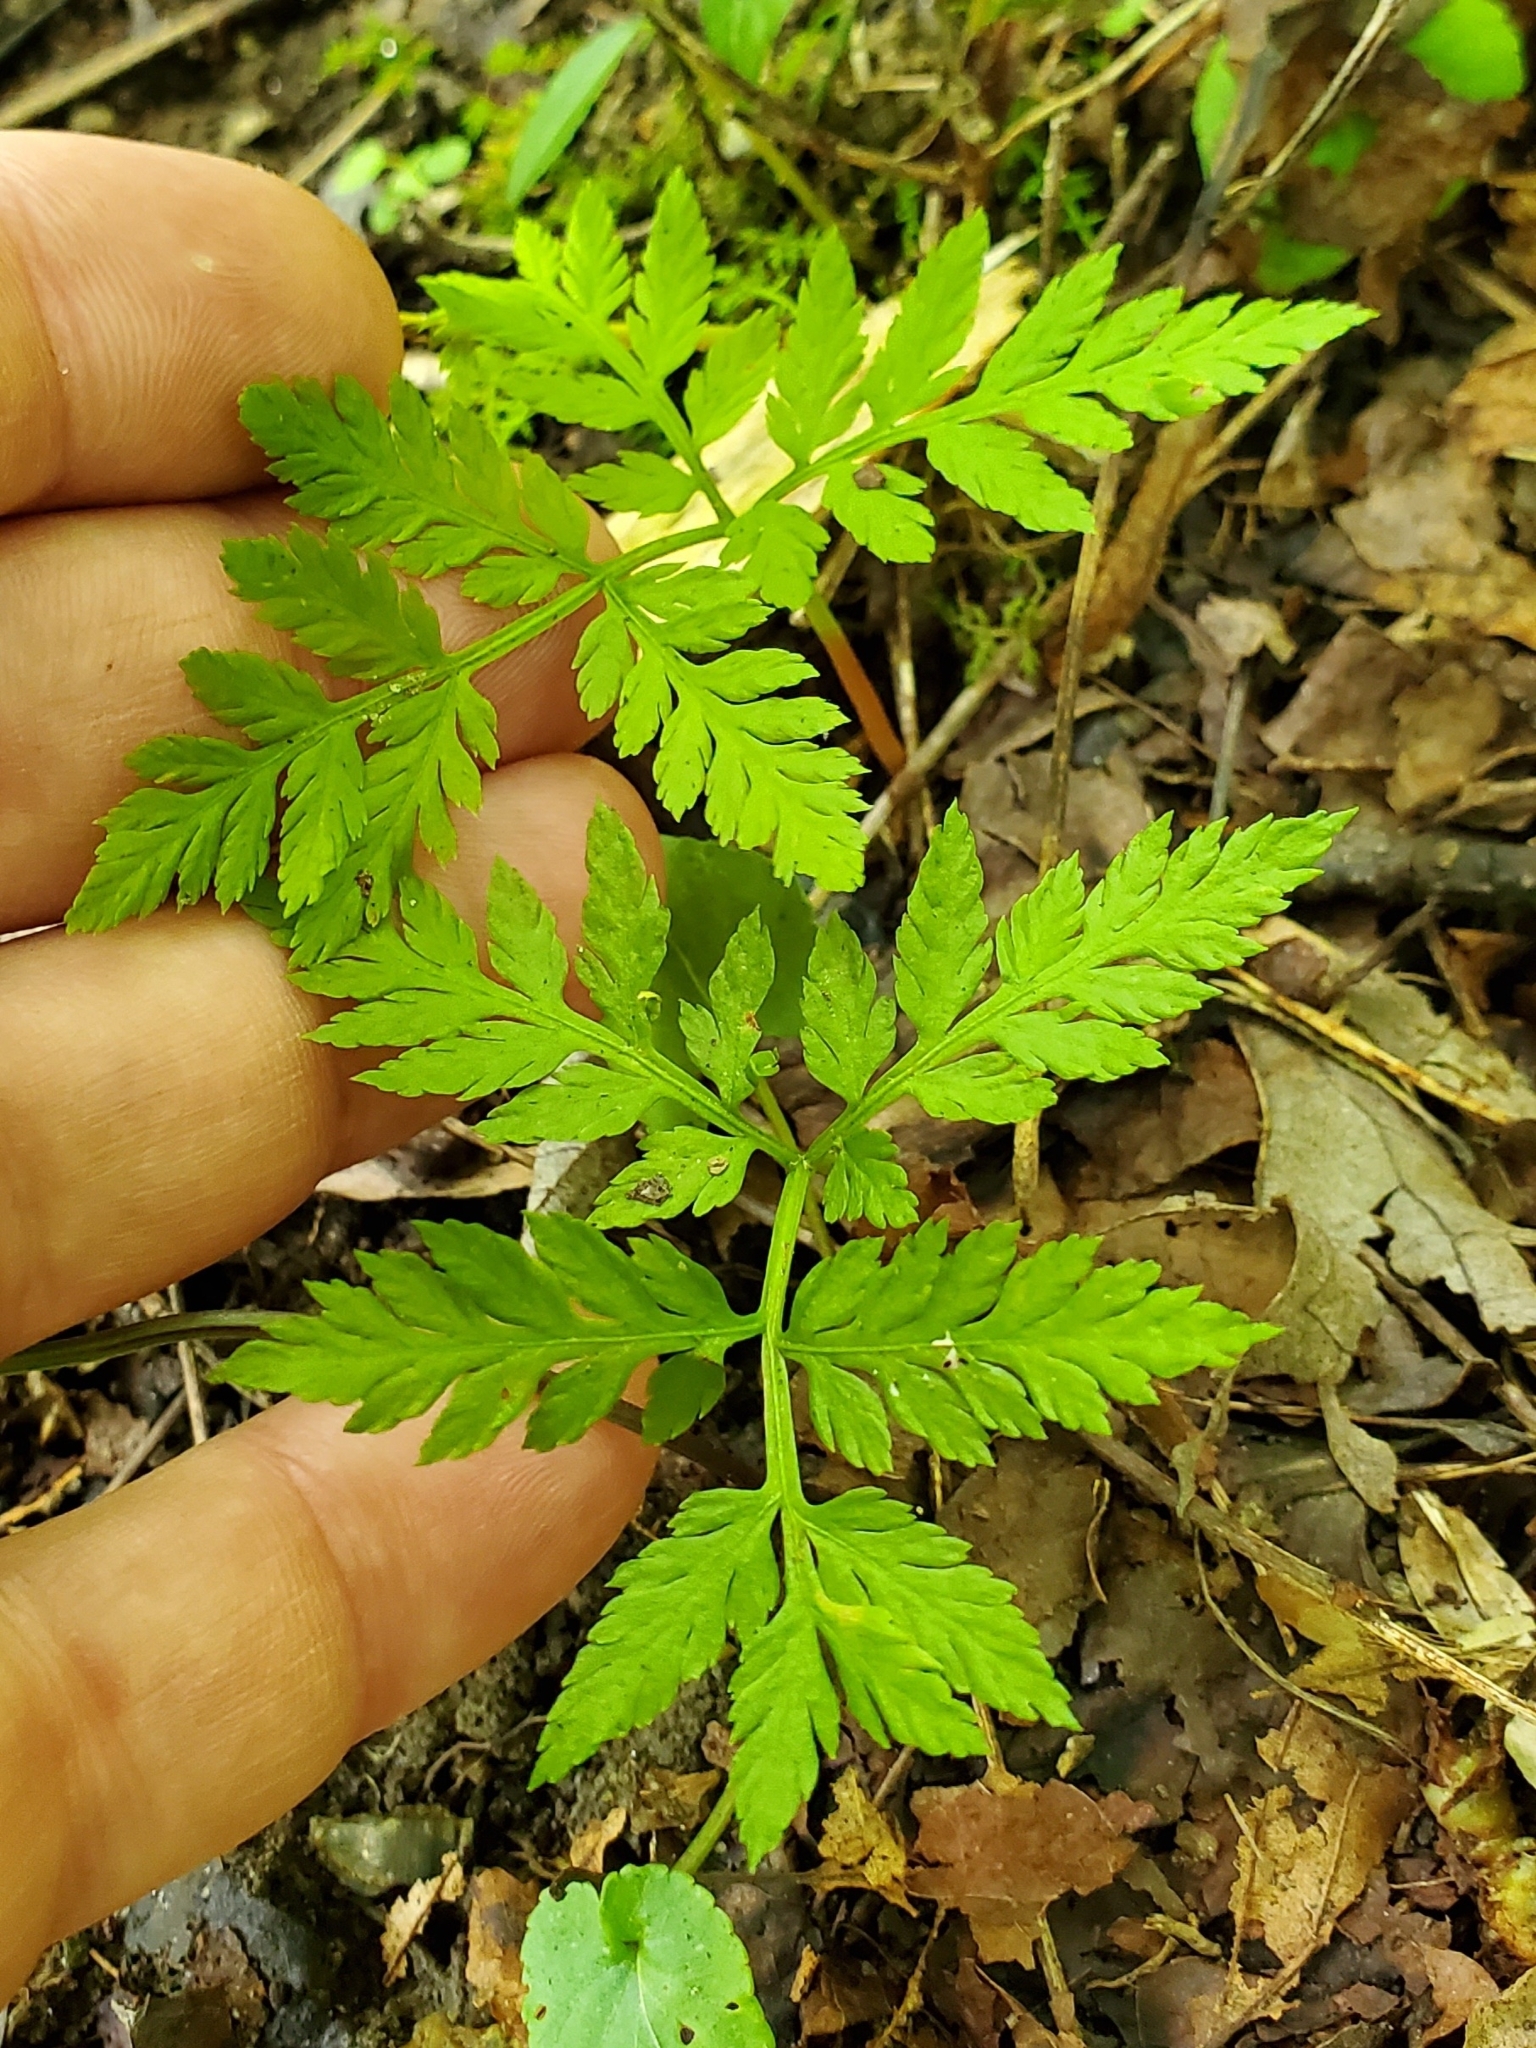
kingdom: Plantae
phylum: Tracheophyta
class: Polypodiopsida
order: Ophioglossales
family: Ophioglossaceae
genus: Botrypus
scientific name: Botrypus virginianus
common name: Common grapefern
